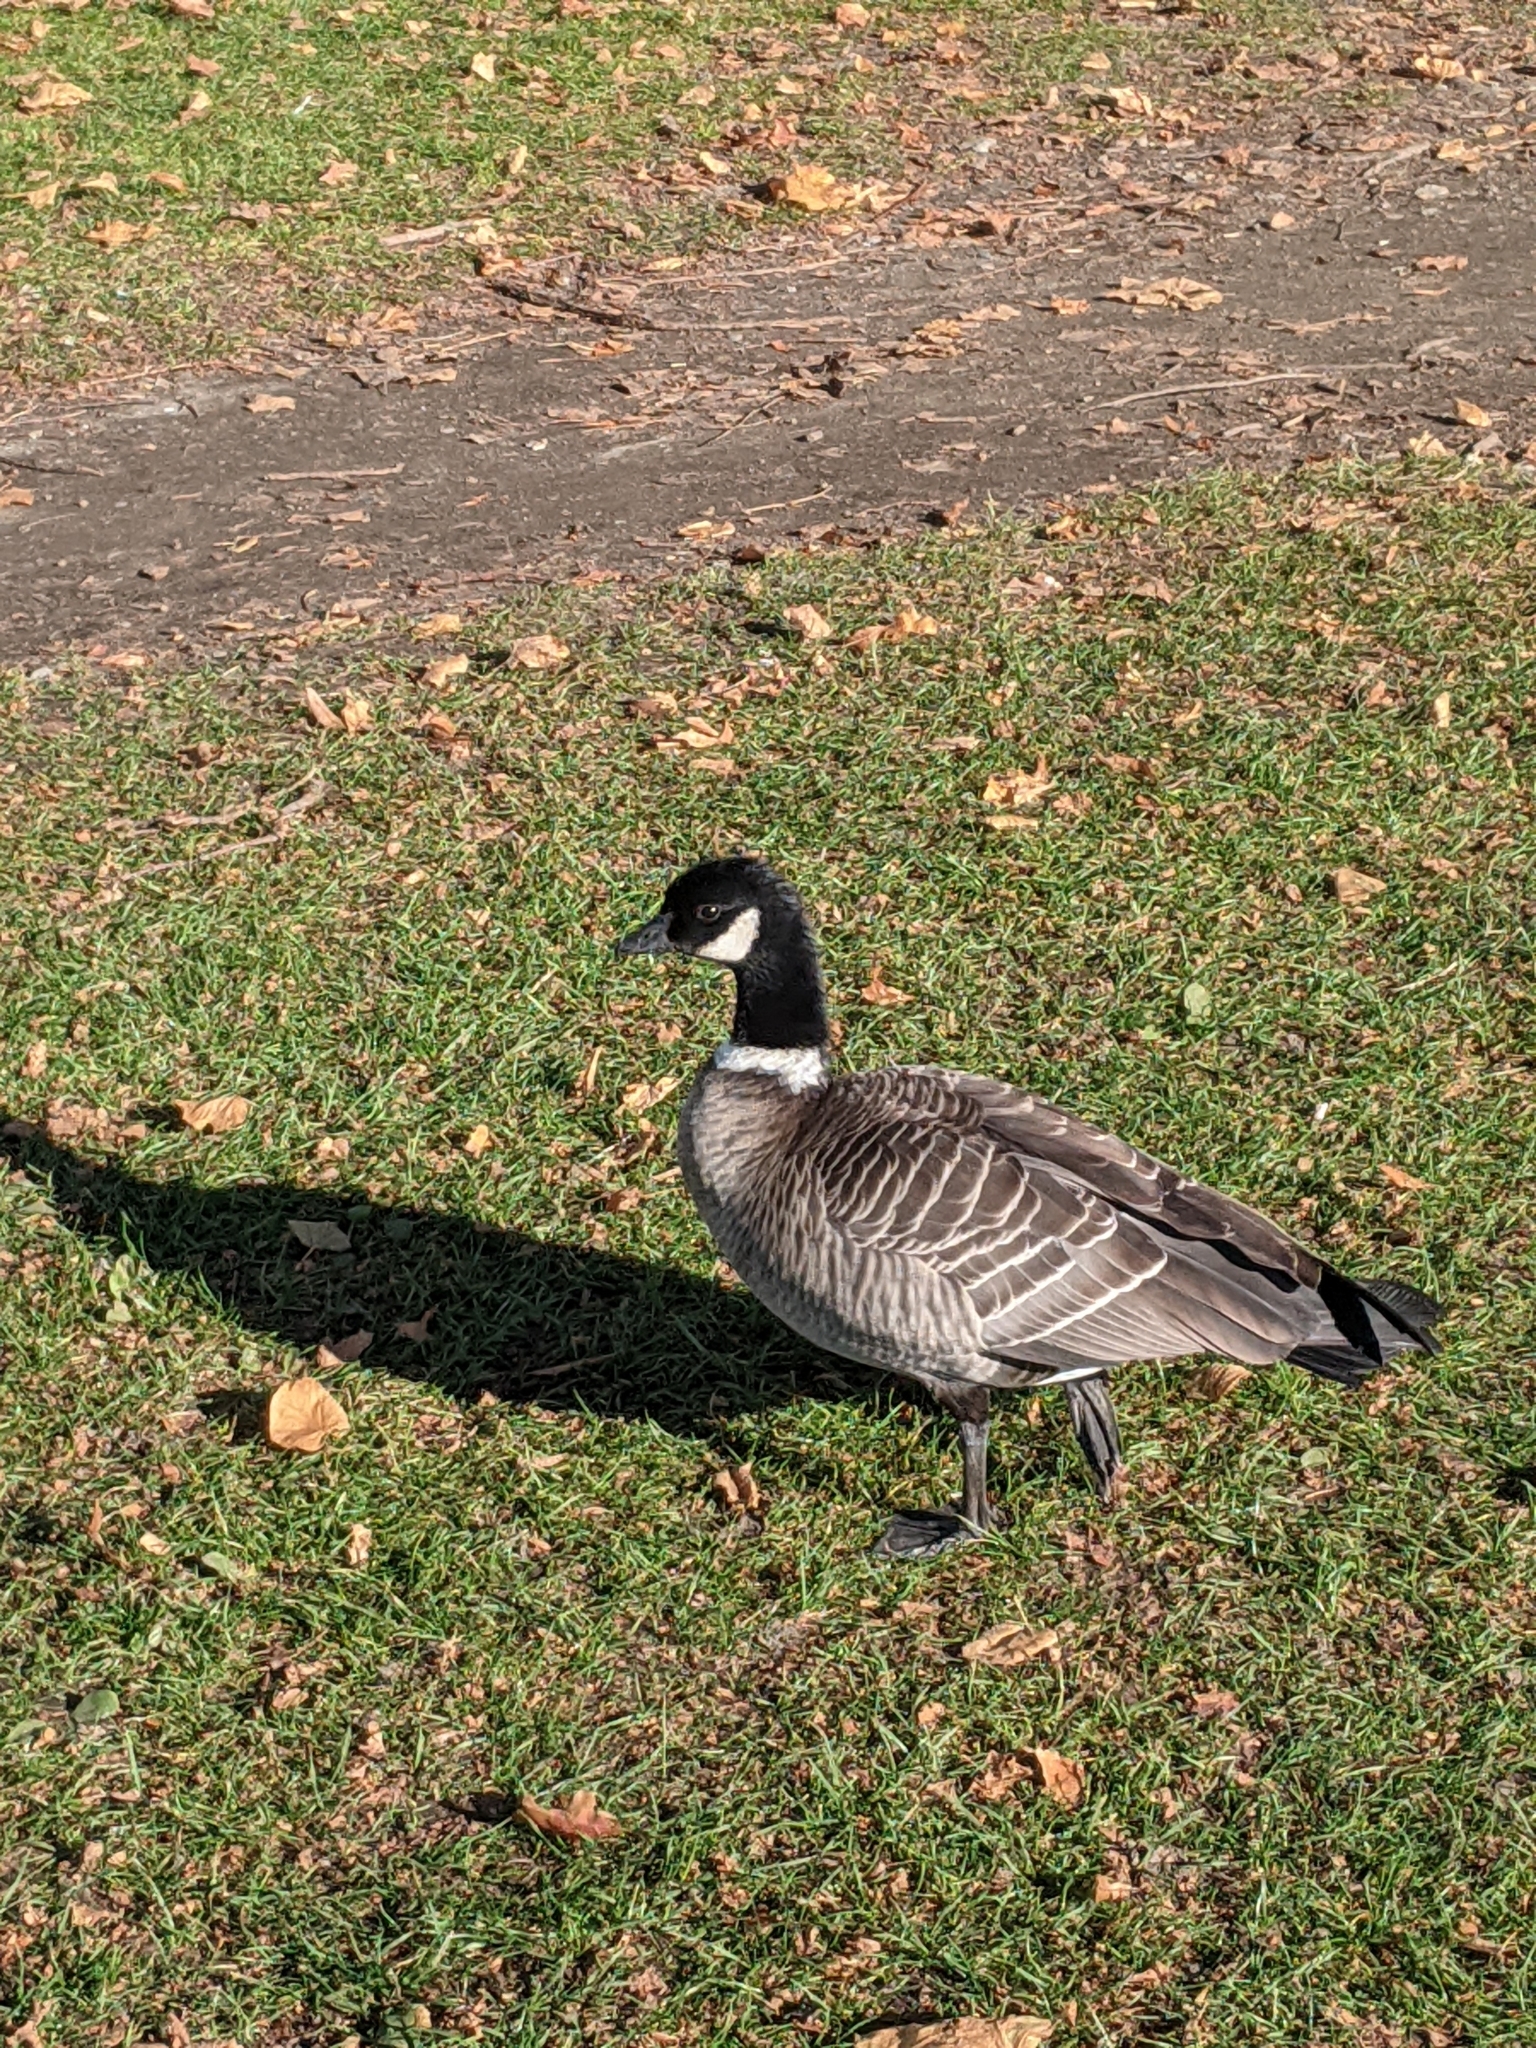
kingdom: Animalia
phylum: Chordata
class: Aves
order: Anseriformes
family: Anatidae
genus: Branta
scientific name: Branta hutchinsii
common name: Cackling goose
